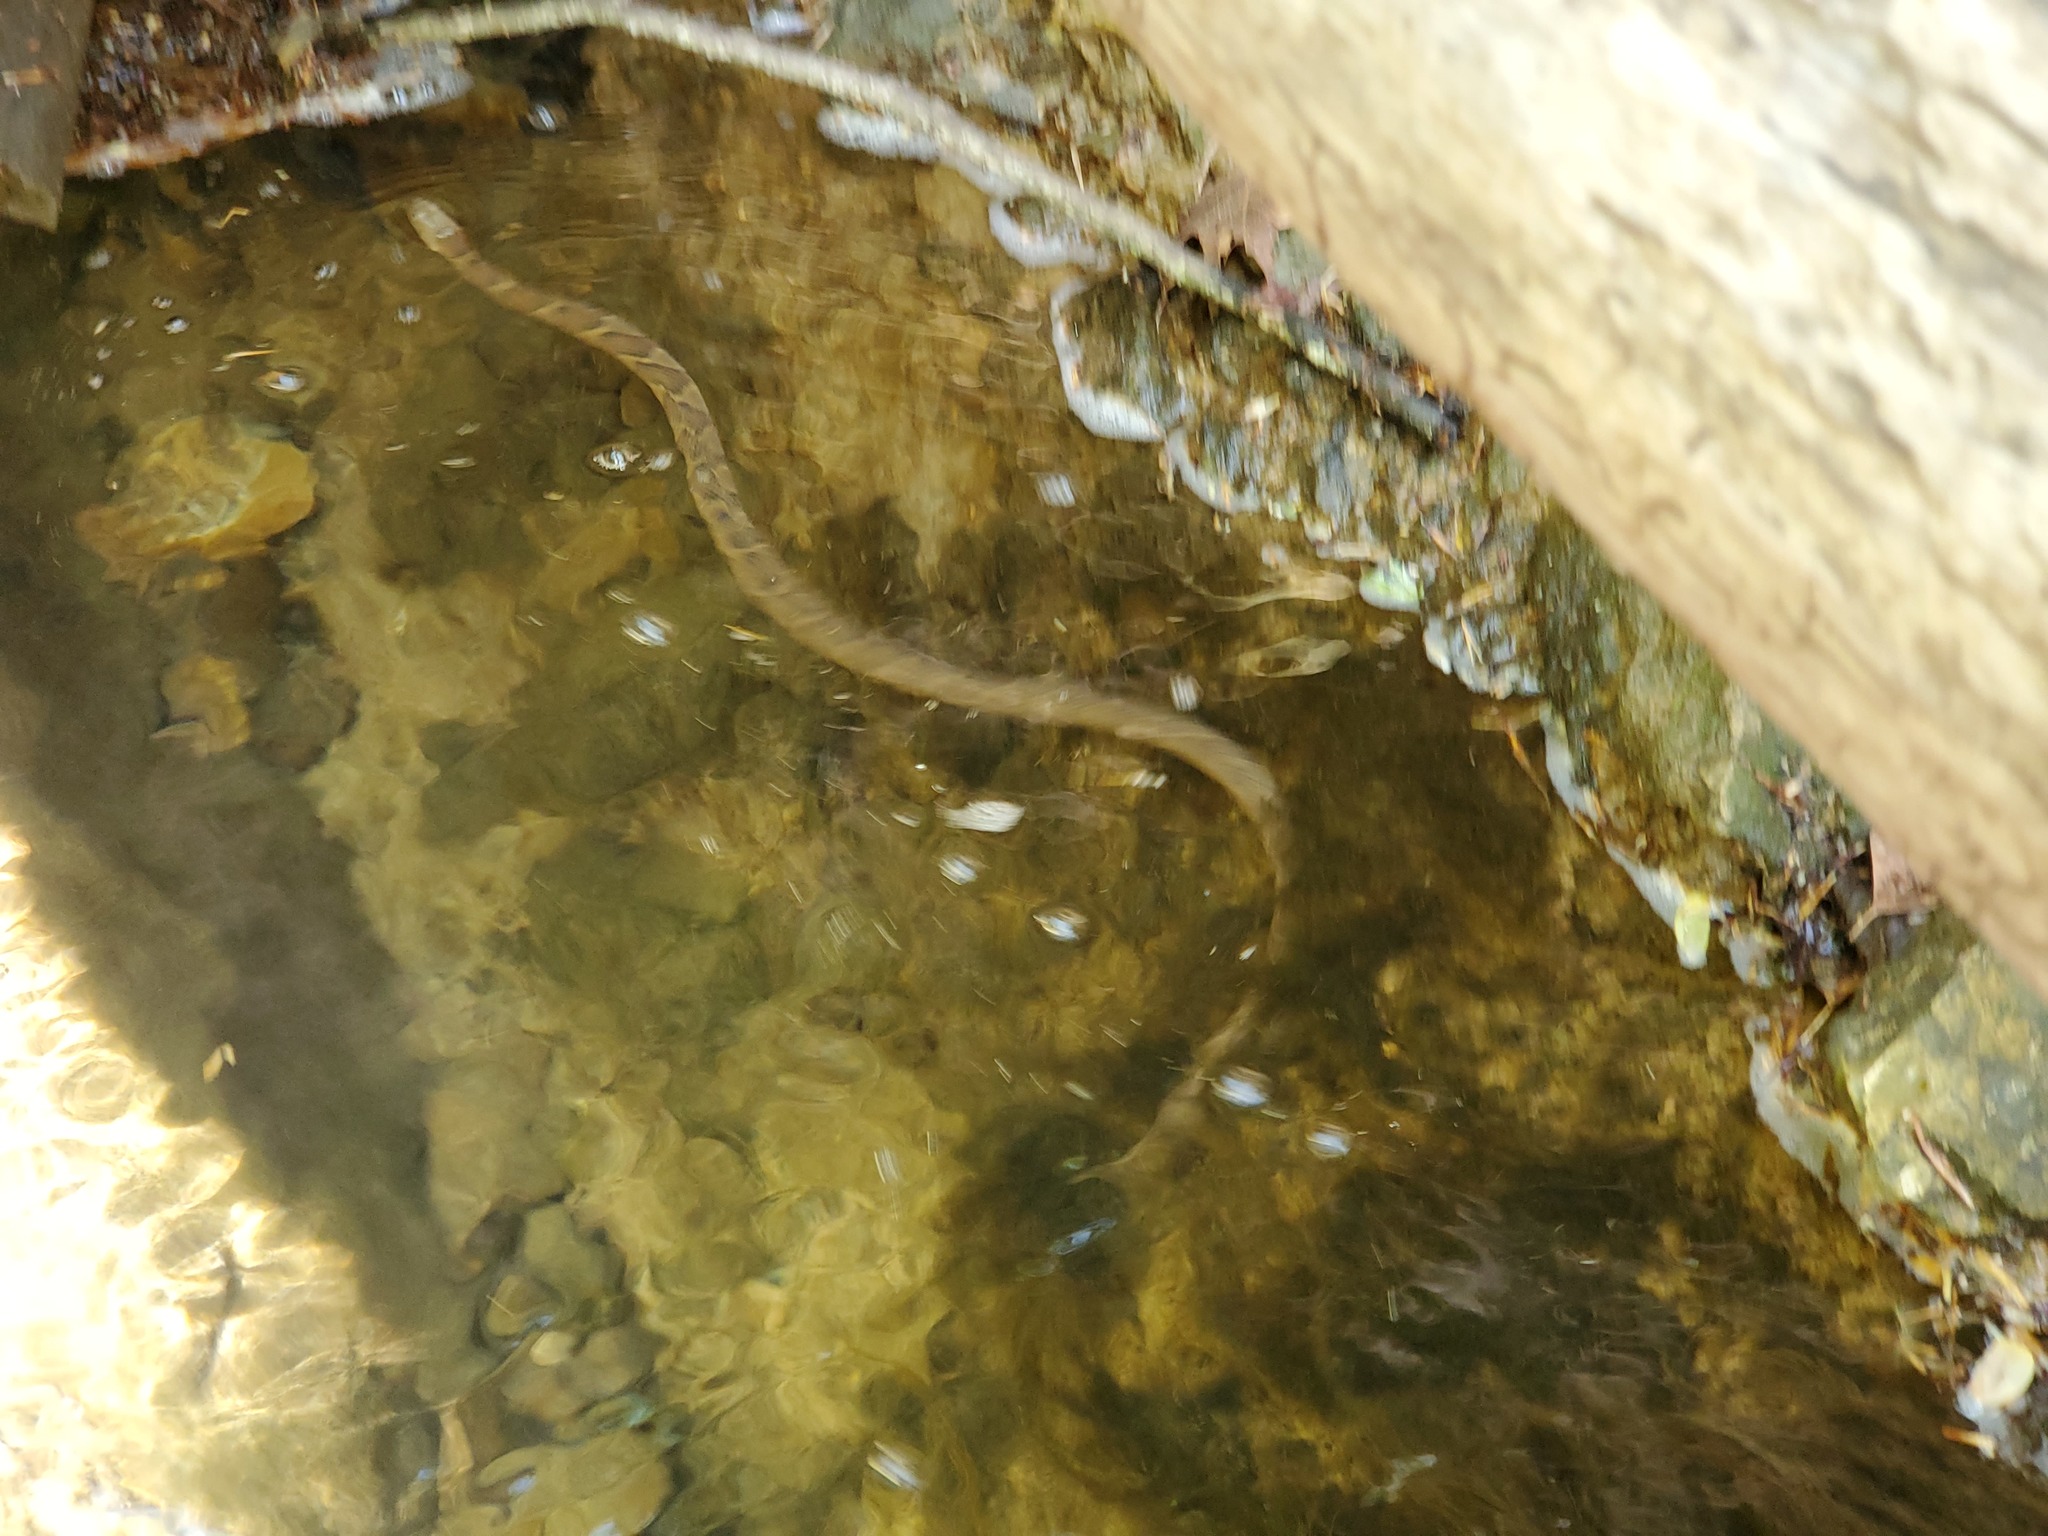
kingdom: Animalia
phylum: Chordata
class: Squamata
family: Colubridae
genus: Nerodia
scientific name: Nerodia sipedon
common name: Northern water snake
